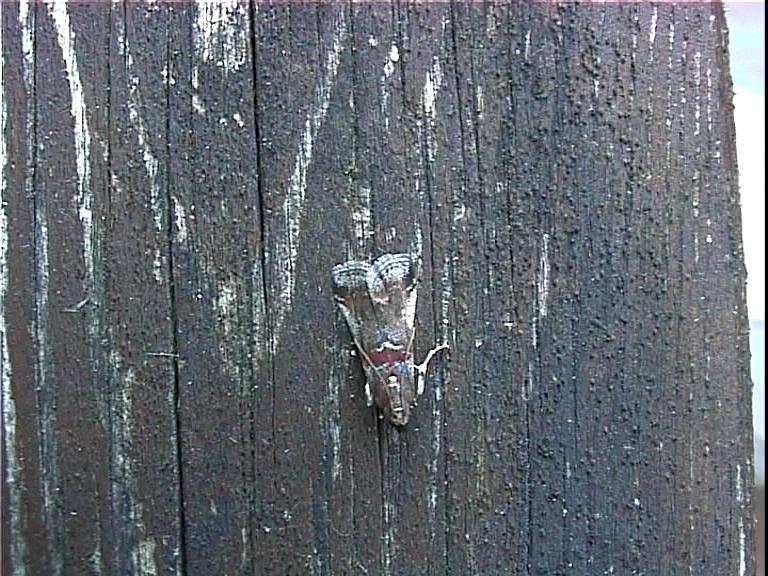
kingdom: Animalia
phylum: Arthropoda
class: Insecta
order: Lepidoptera
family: Pyralidae
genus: Acrobasis
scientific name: Acrobasis advenella
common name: Grey knot-horn
